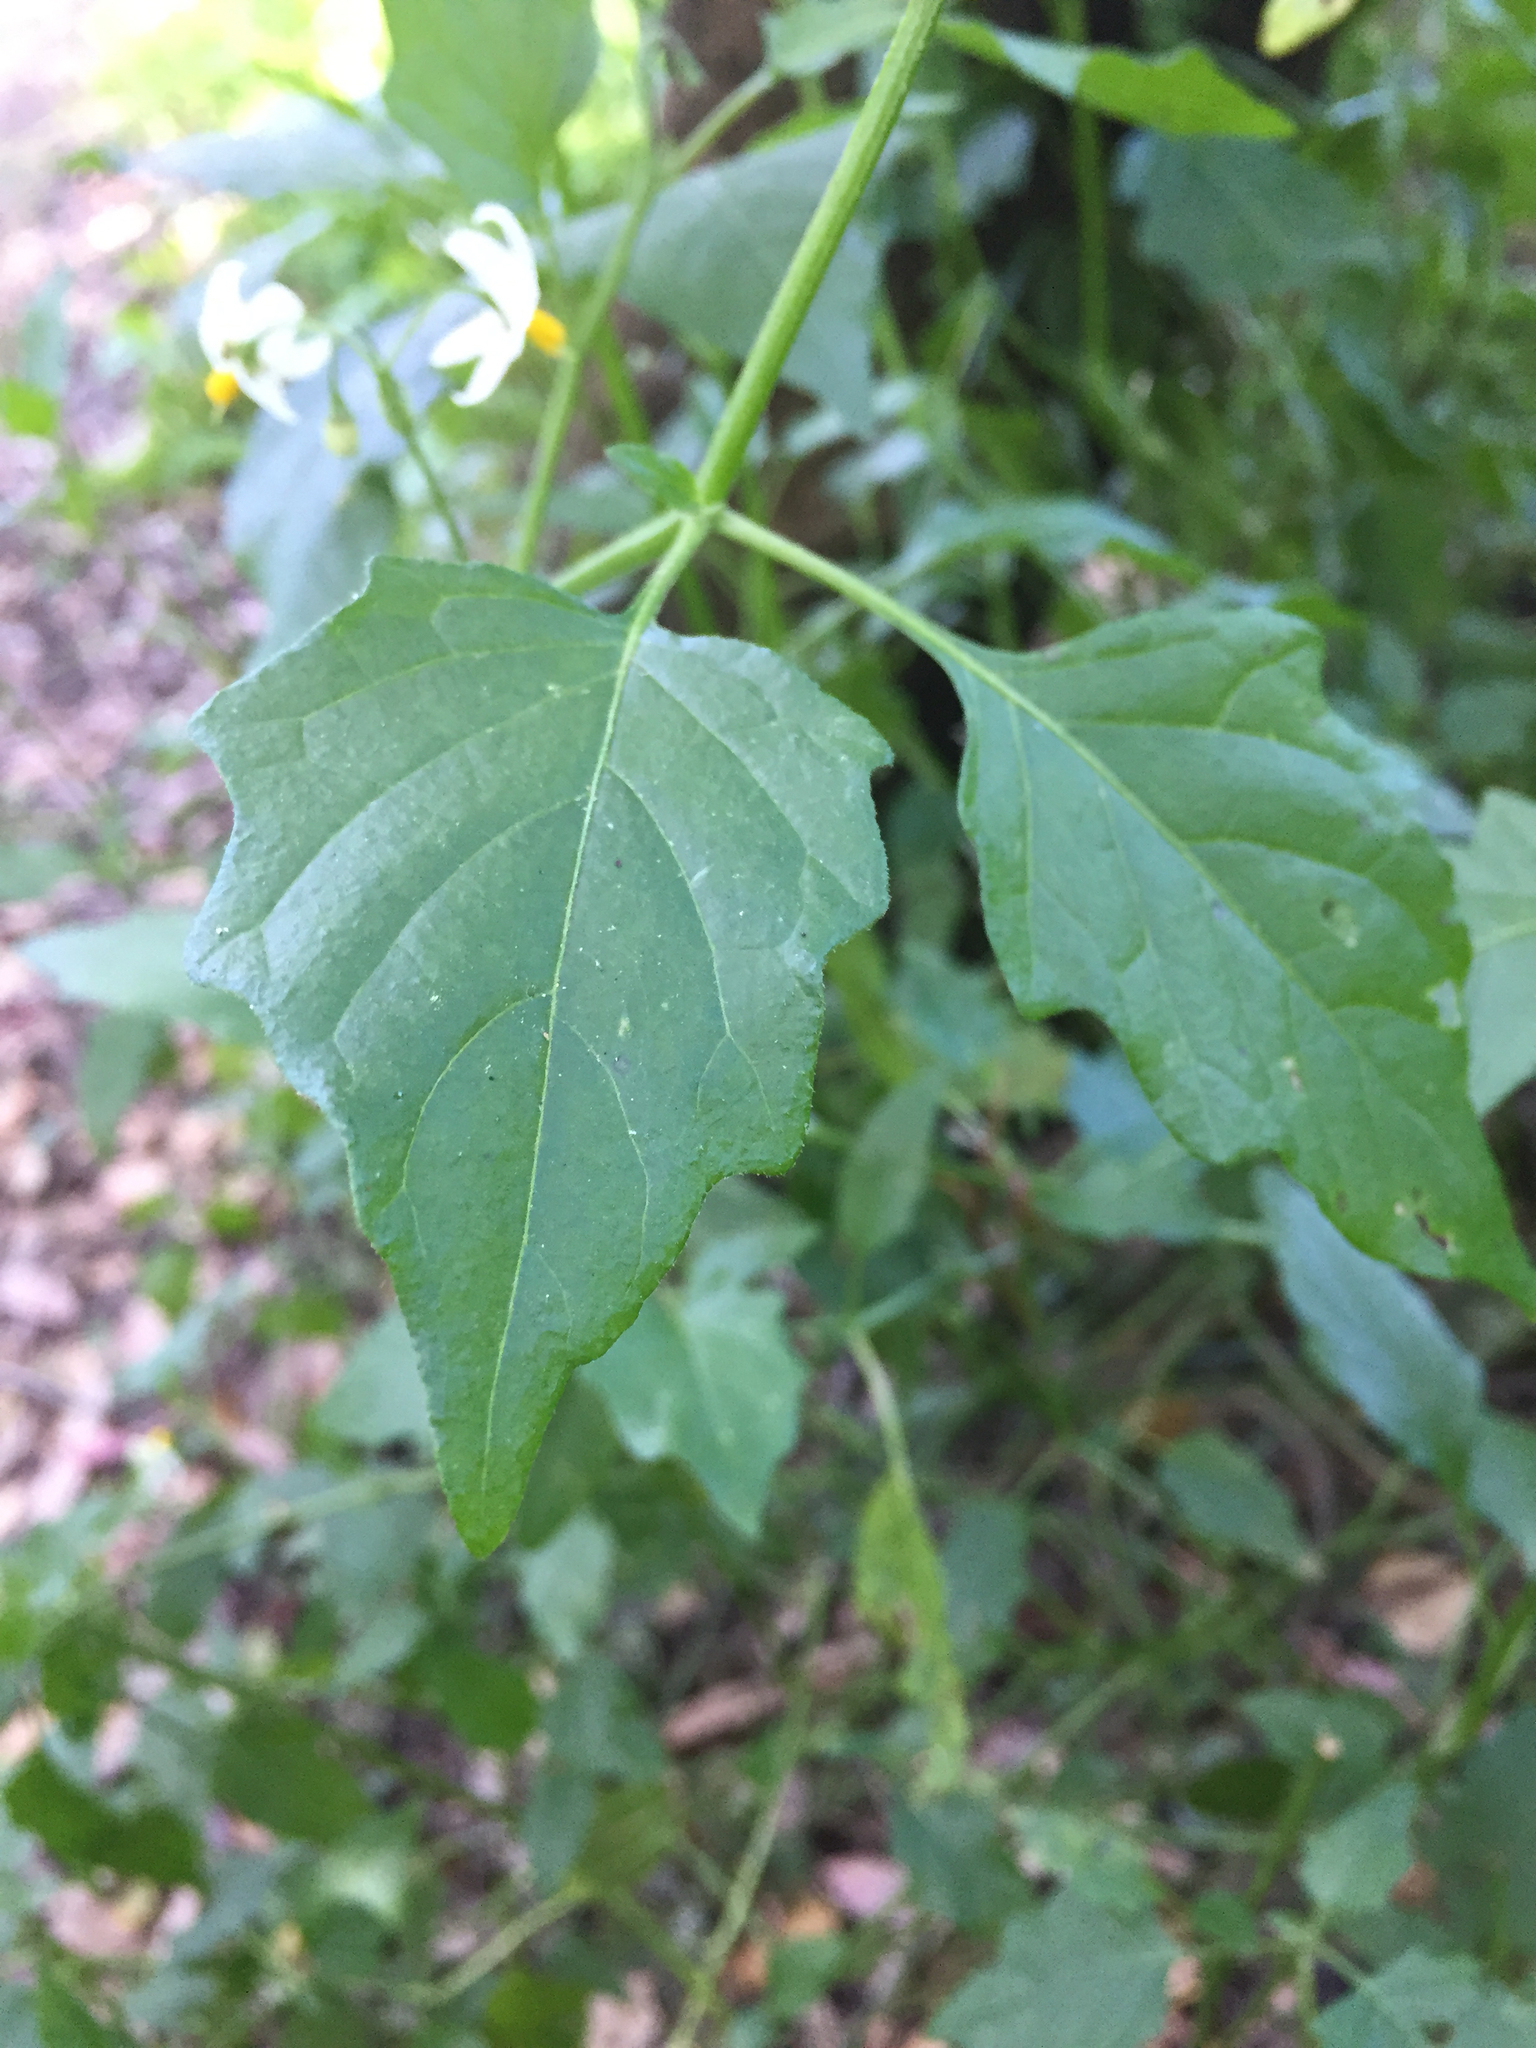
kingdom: Plantae
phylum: Tracheophyta
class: Magnoliopsida
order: Solanales
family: Solanaceae
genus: Solanum
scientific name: Solanum furcatum
